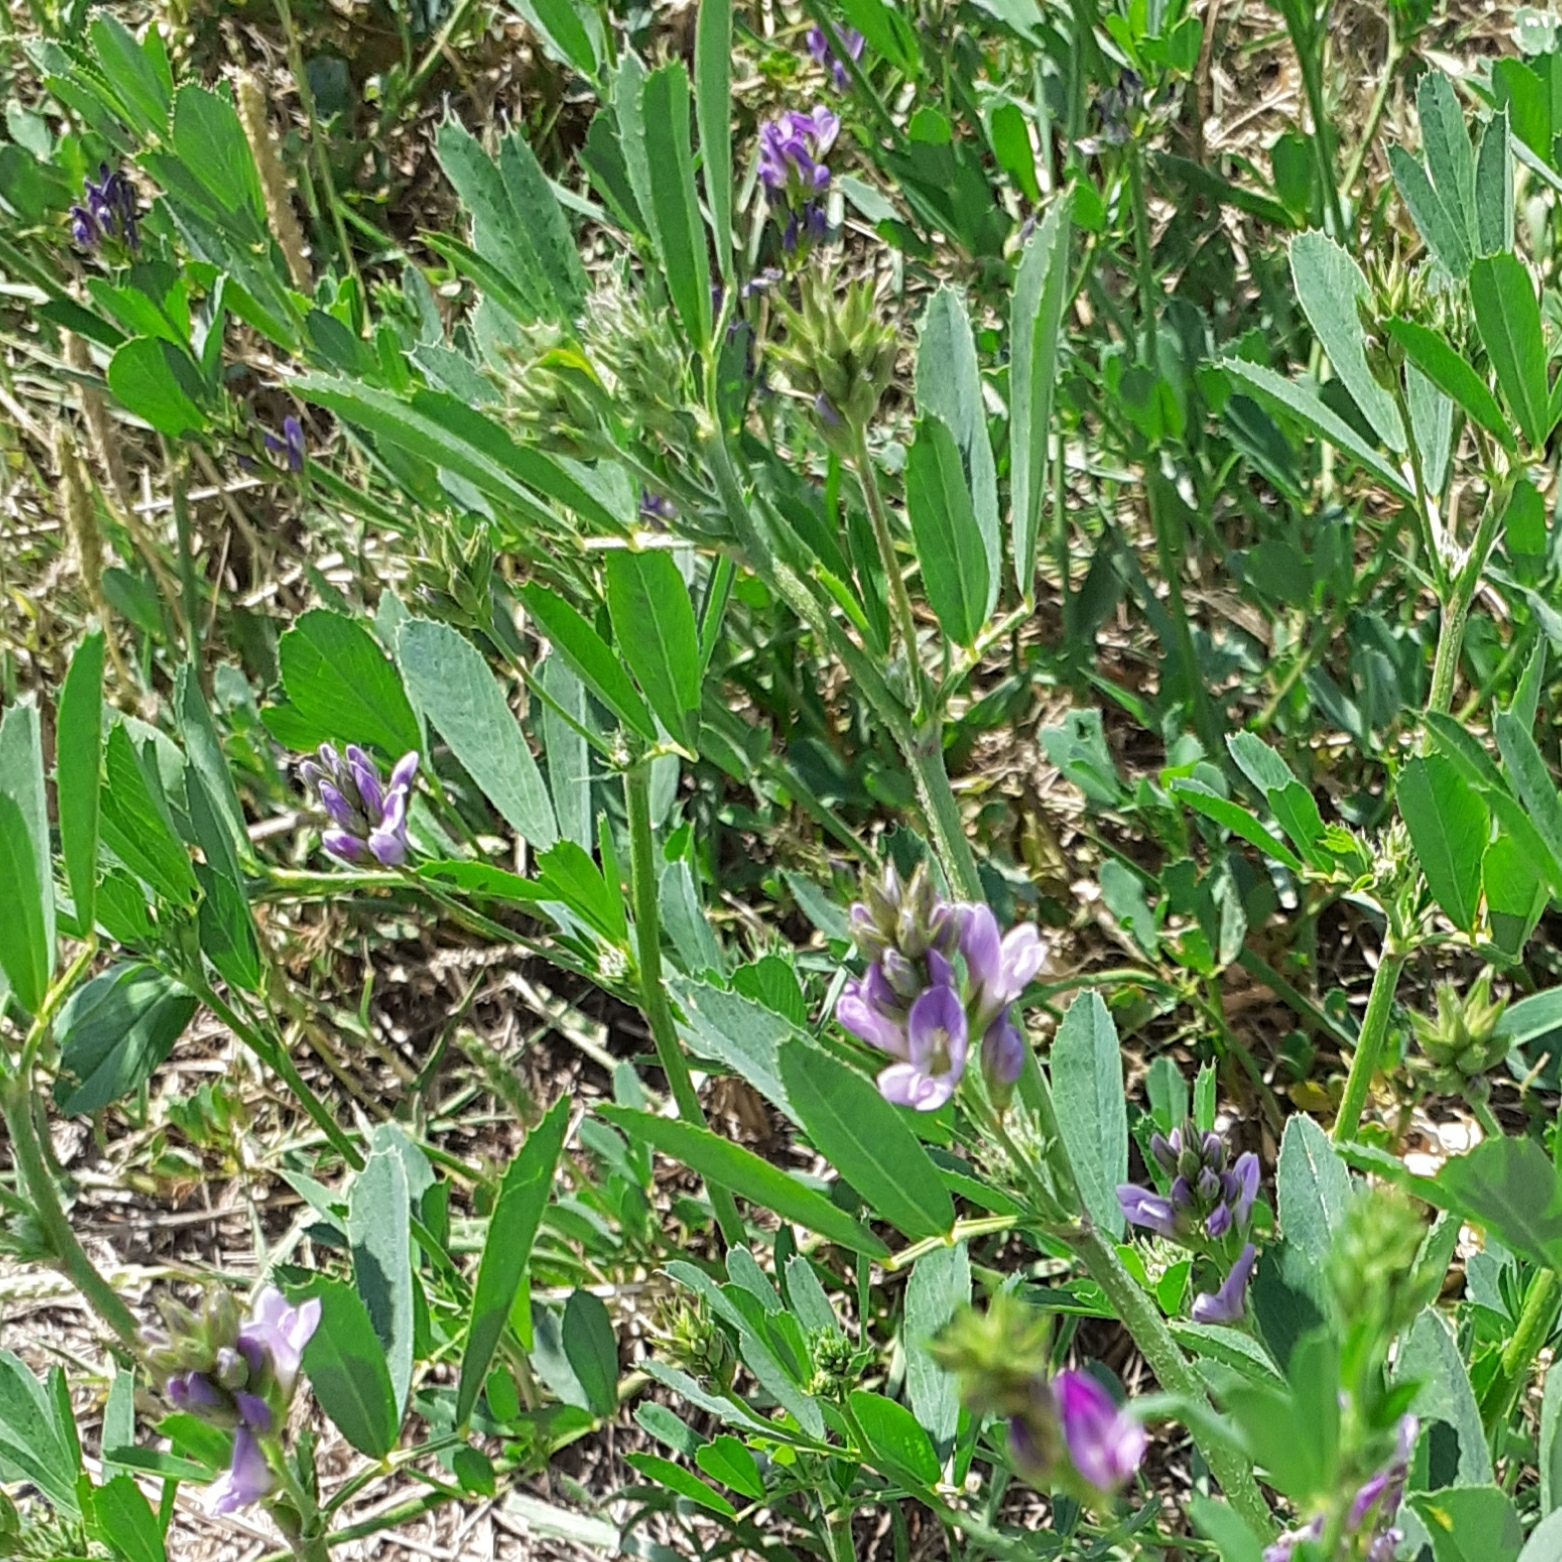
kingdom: Plantae
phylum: Tracheophyta
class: Magnoliopsida
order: Fabales
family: Fabaceae
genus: Medicago
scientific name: Medicago sativa
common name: Alfalfa
